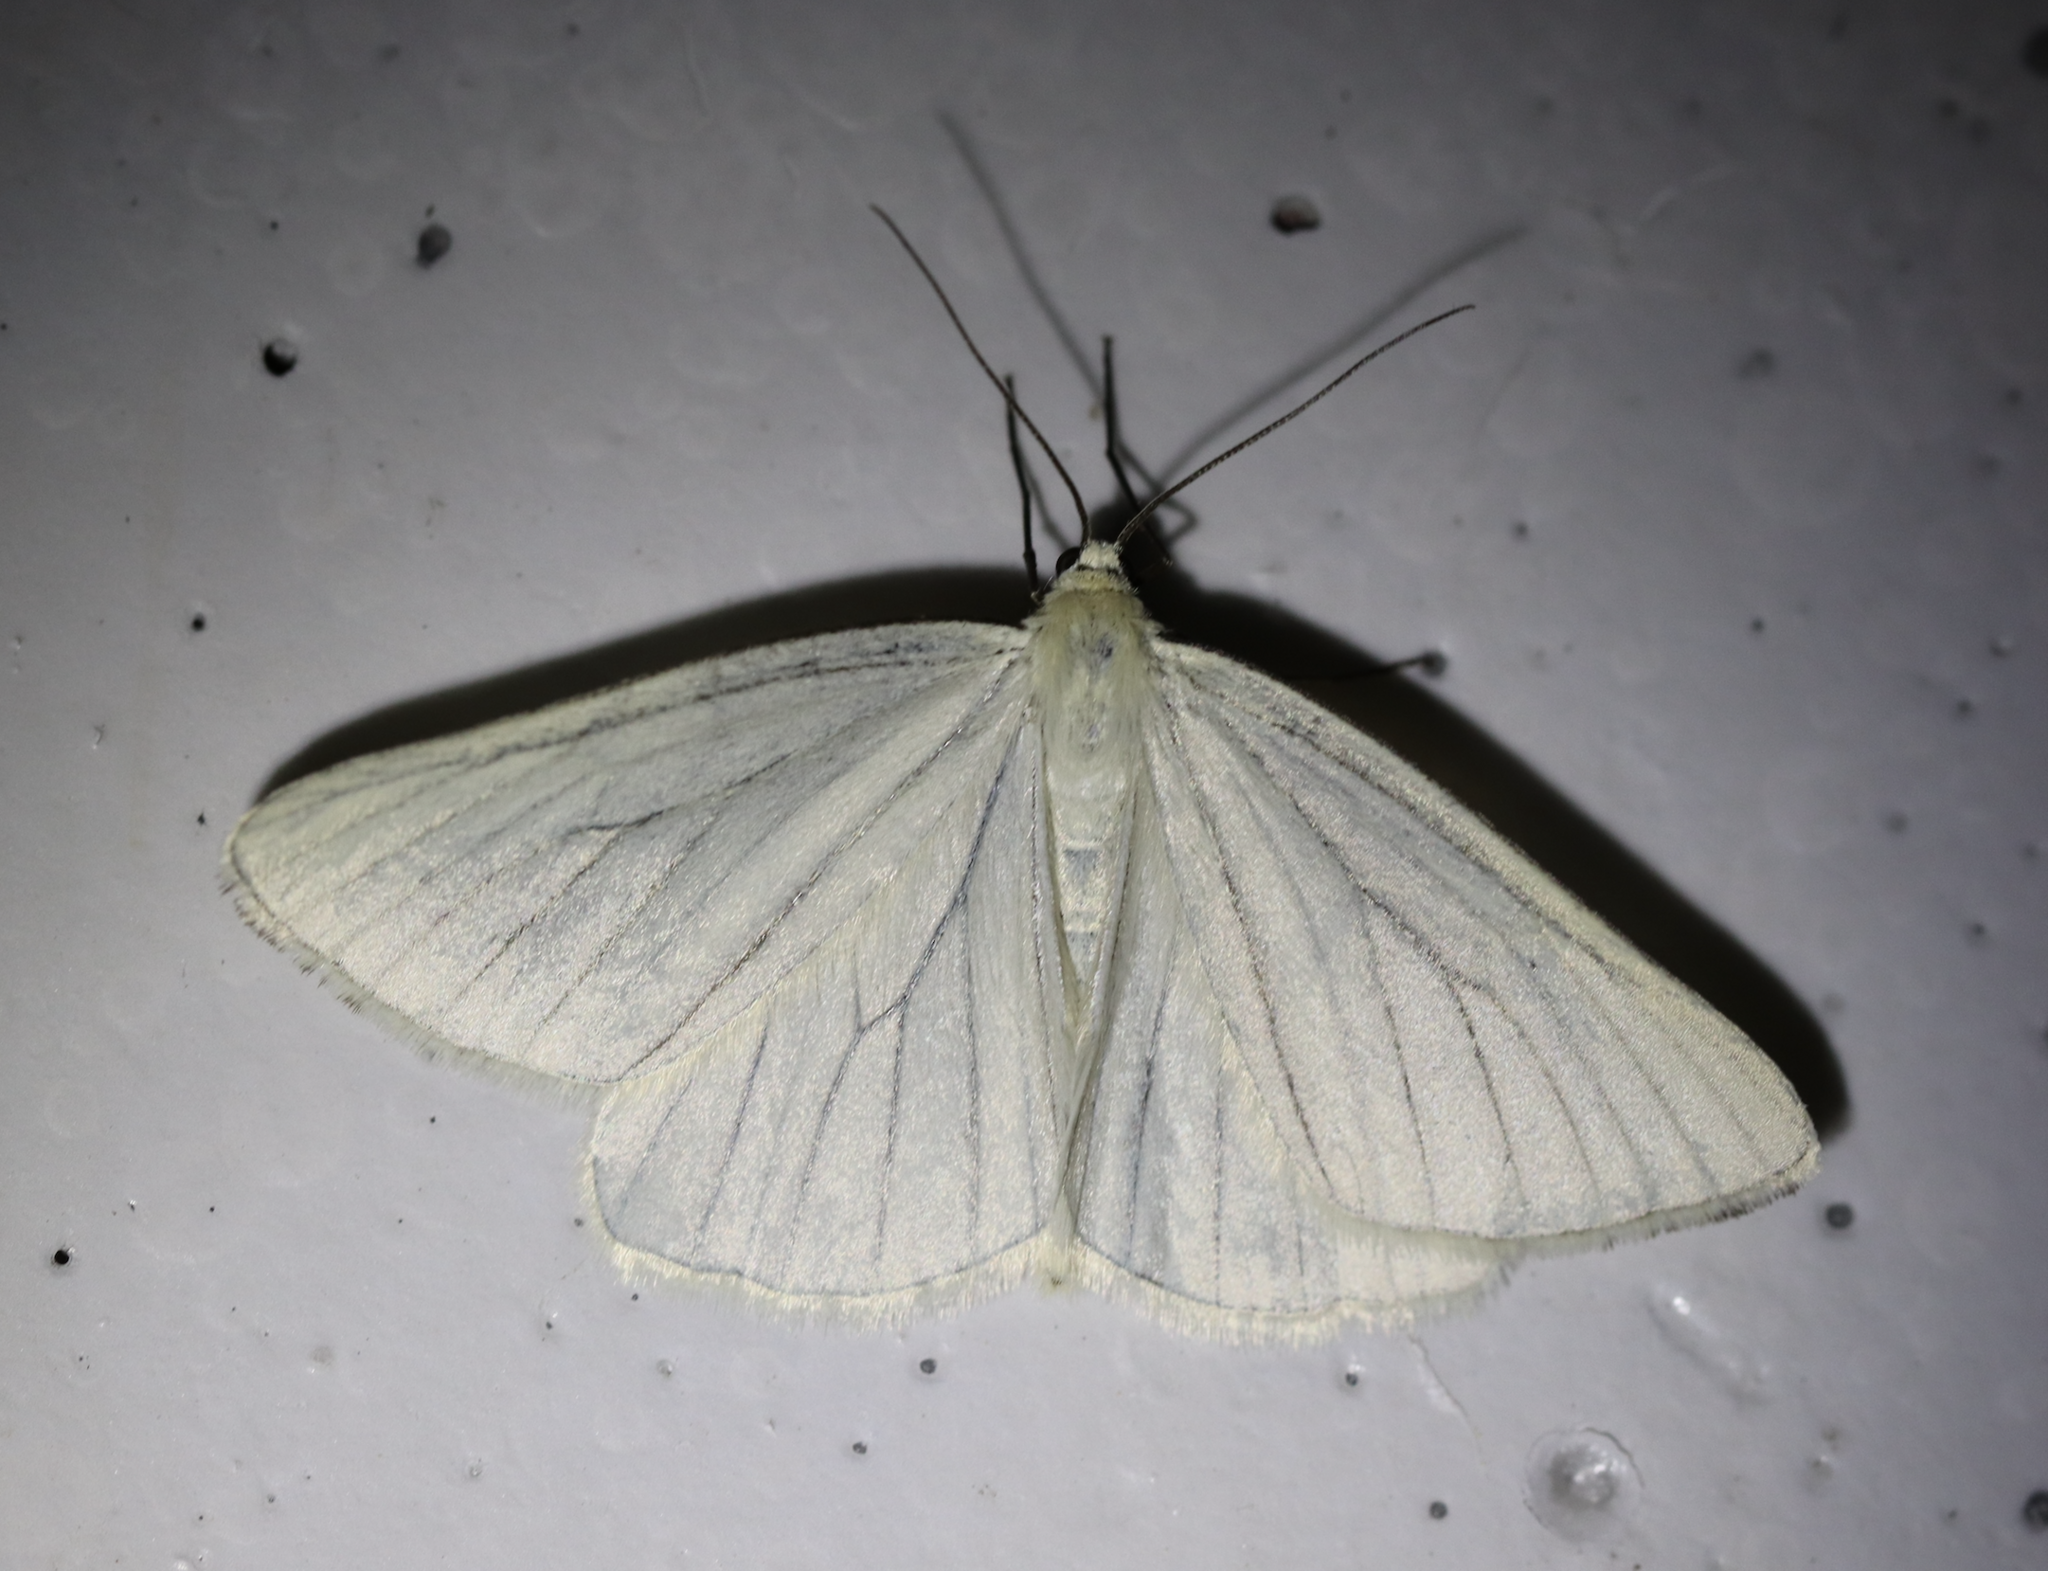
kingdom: Animalia
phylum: Arthropoda
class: Insecta
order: Lepidoptera
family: Geometridae
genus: Siona
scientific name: Siona lineata
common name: Black-veined moth
